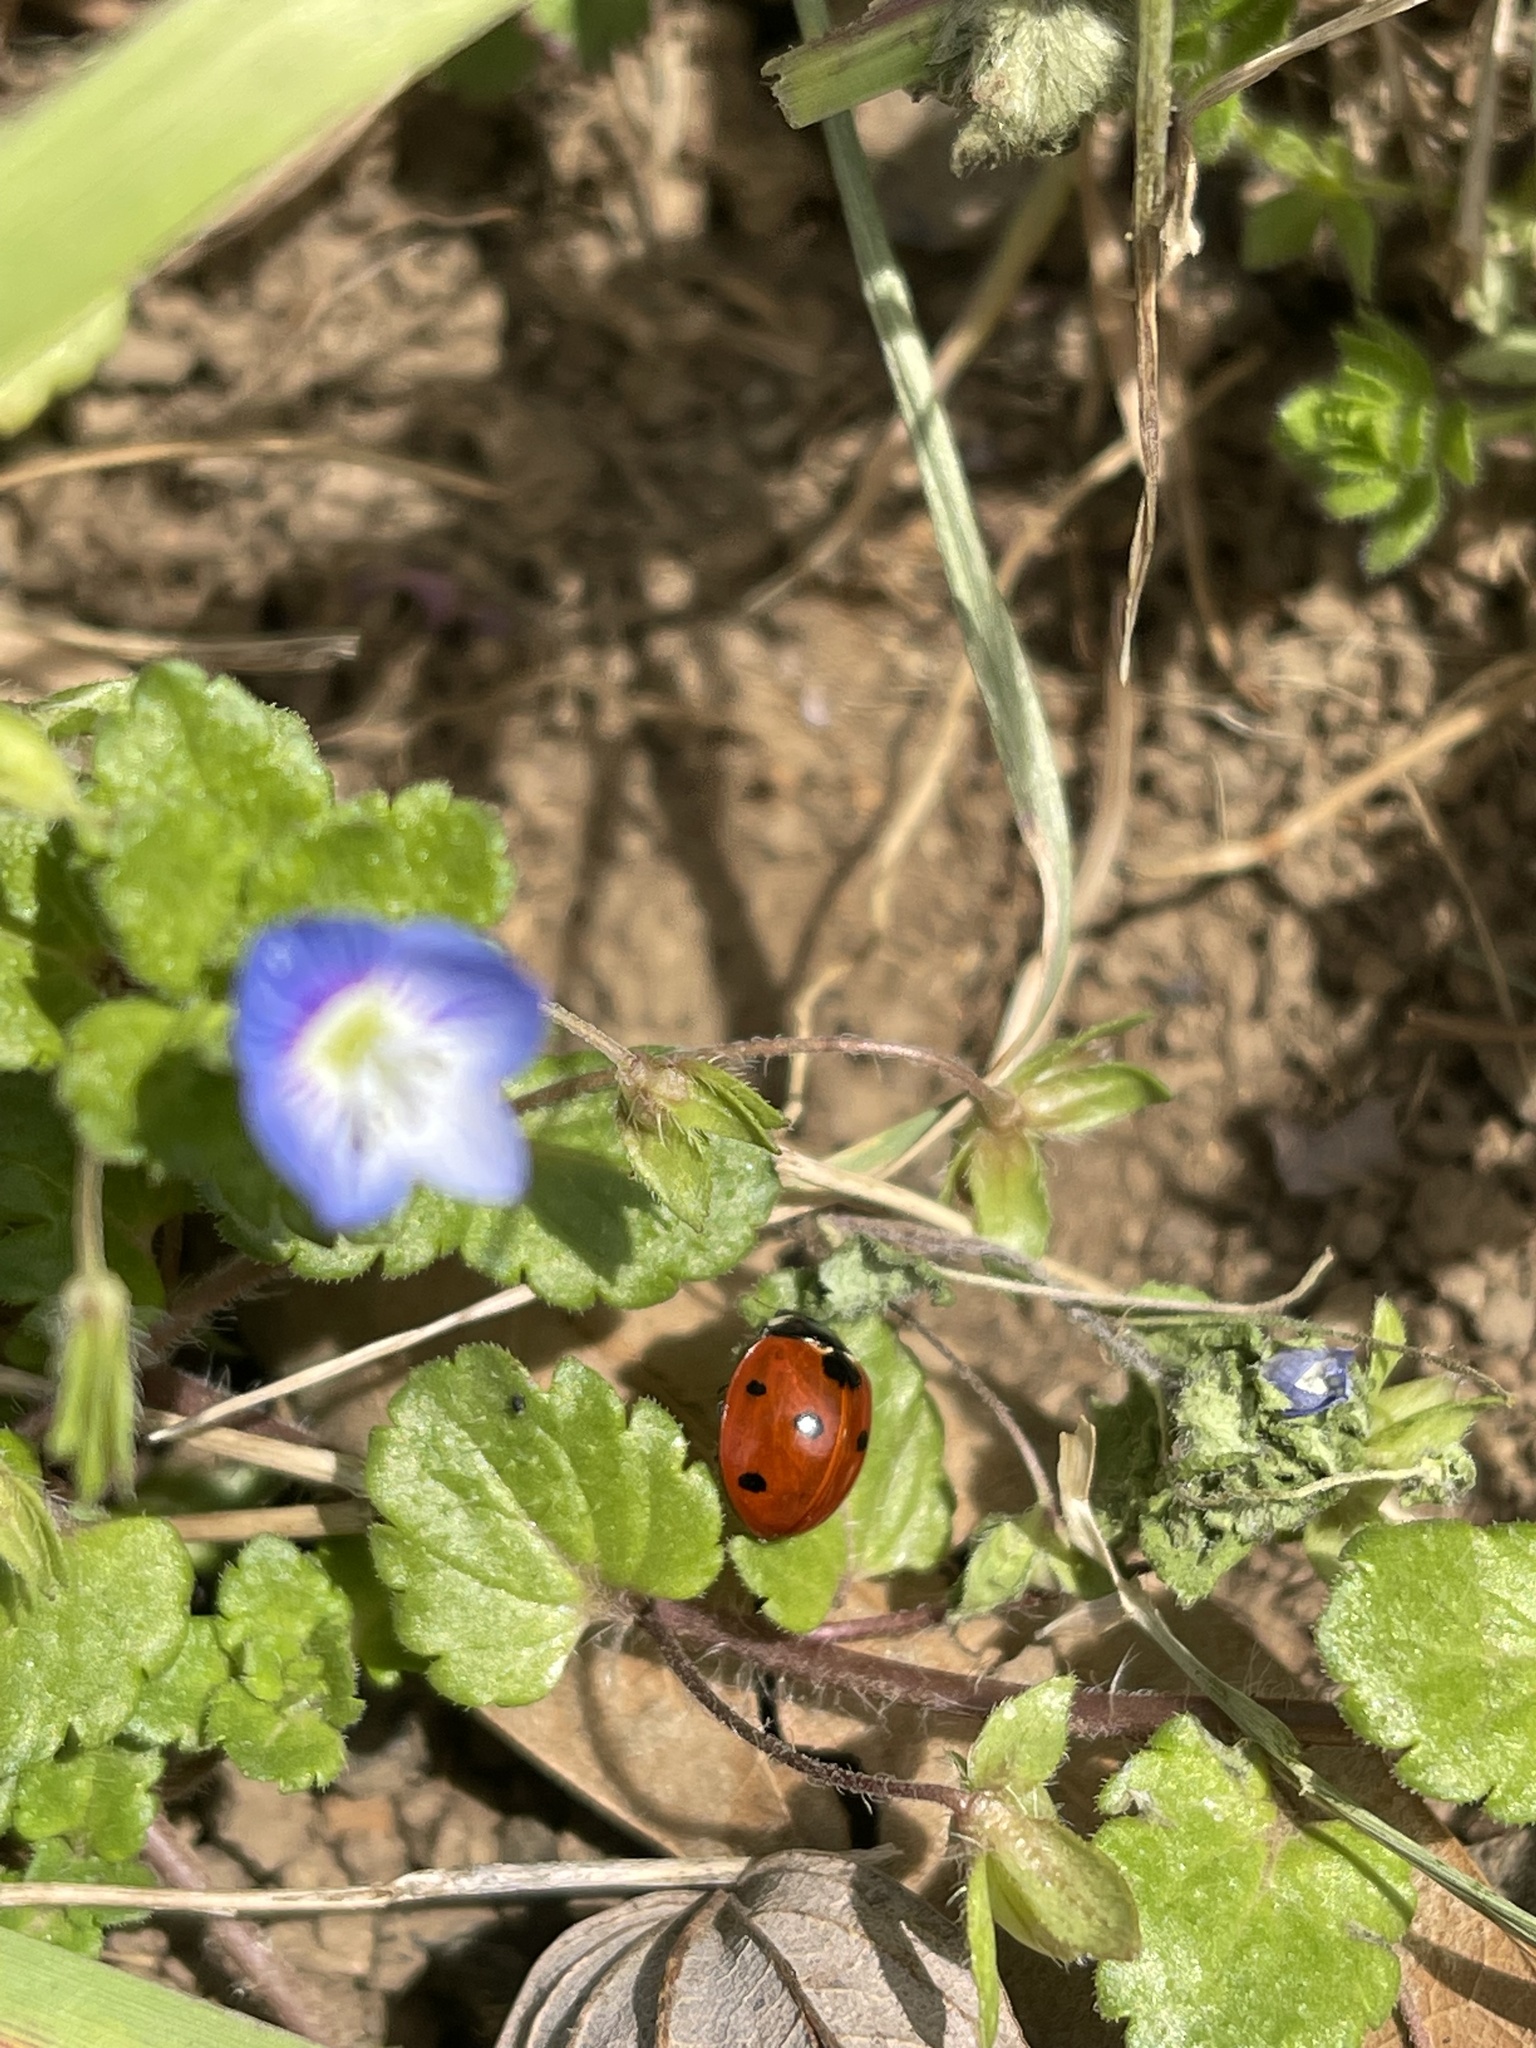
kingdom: Animalia
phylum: Arthropoda
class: Insecta
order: Coleoptera
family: Coccinellidae
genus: Coccinella
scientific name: Coccinella septempunctata
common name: Sevenspotted lady beetle
